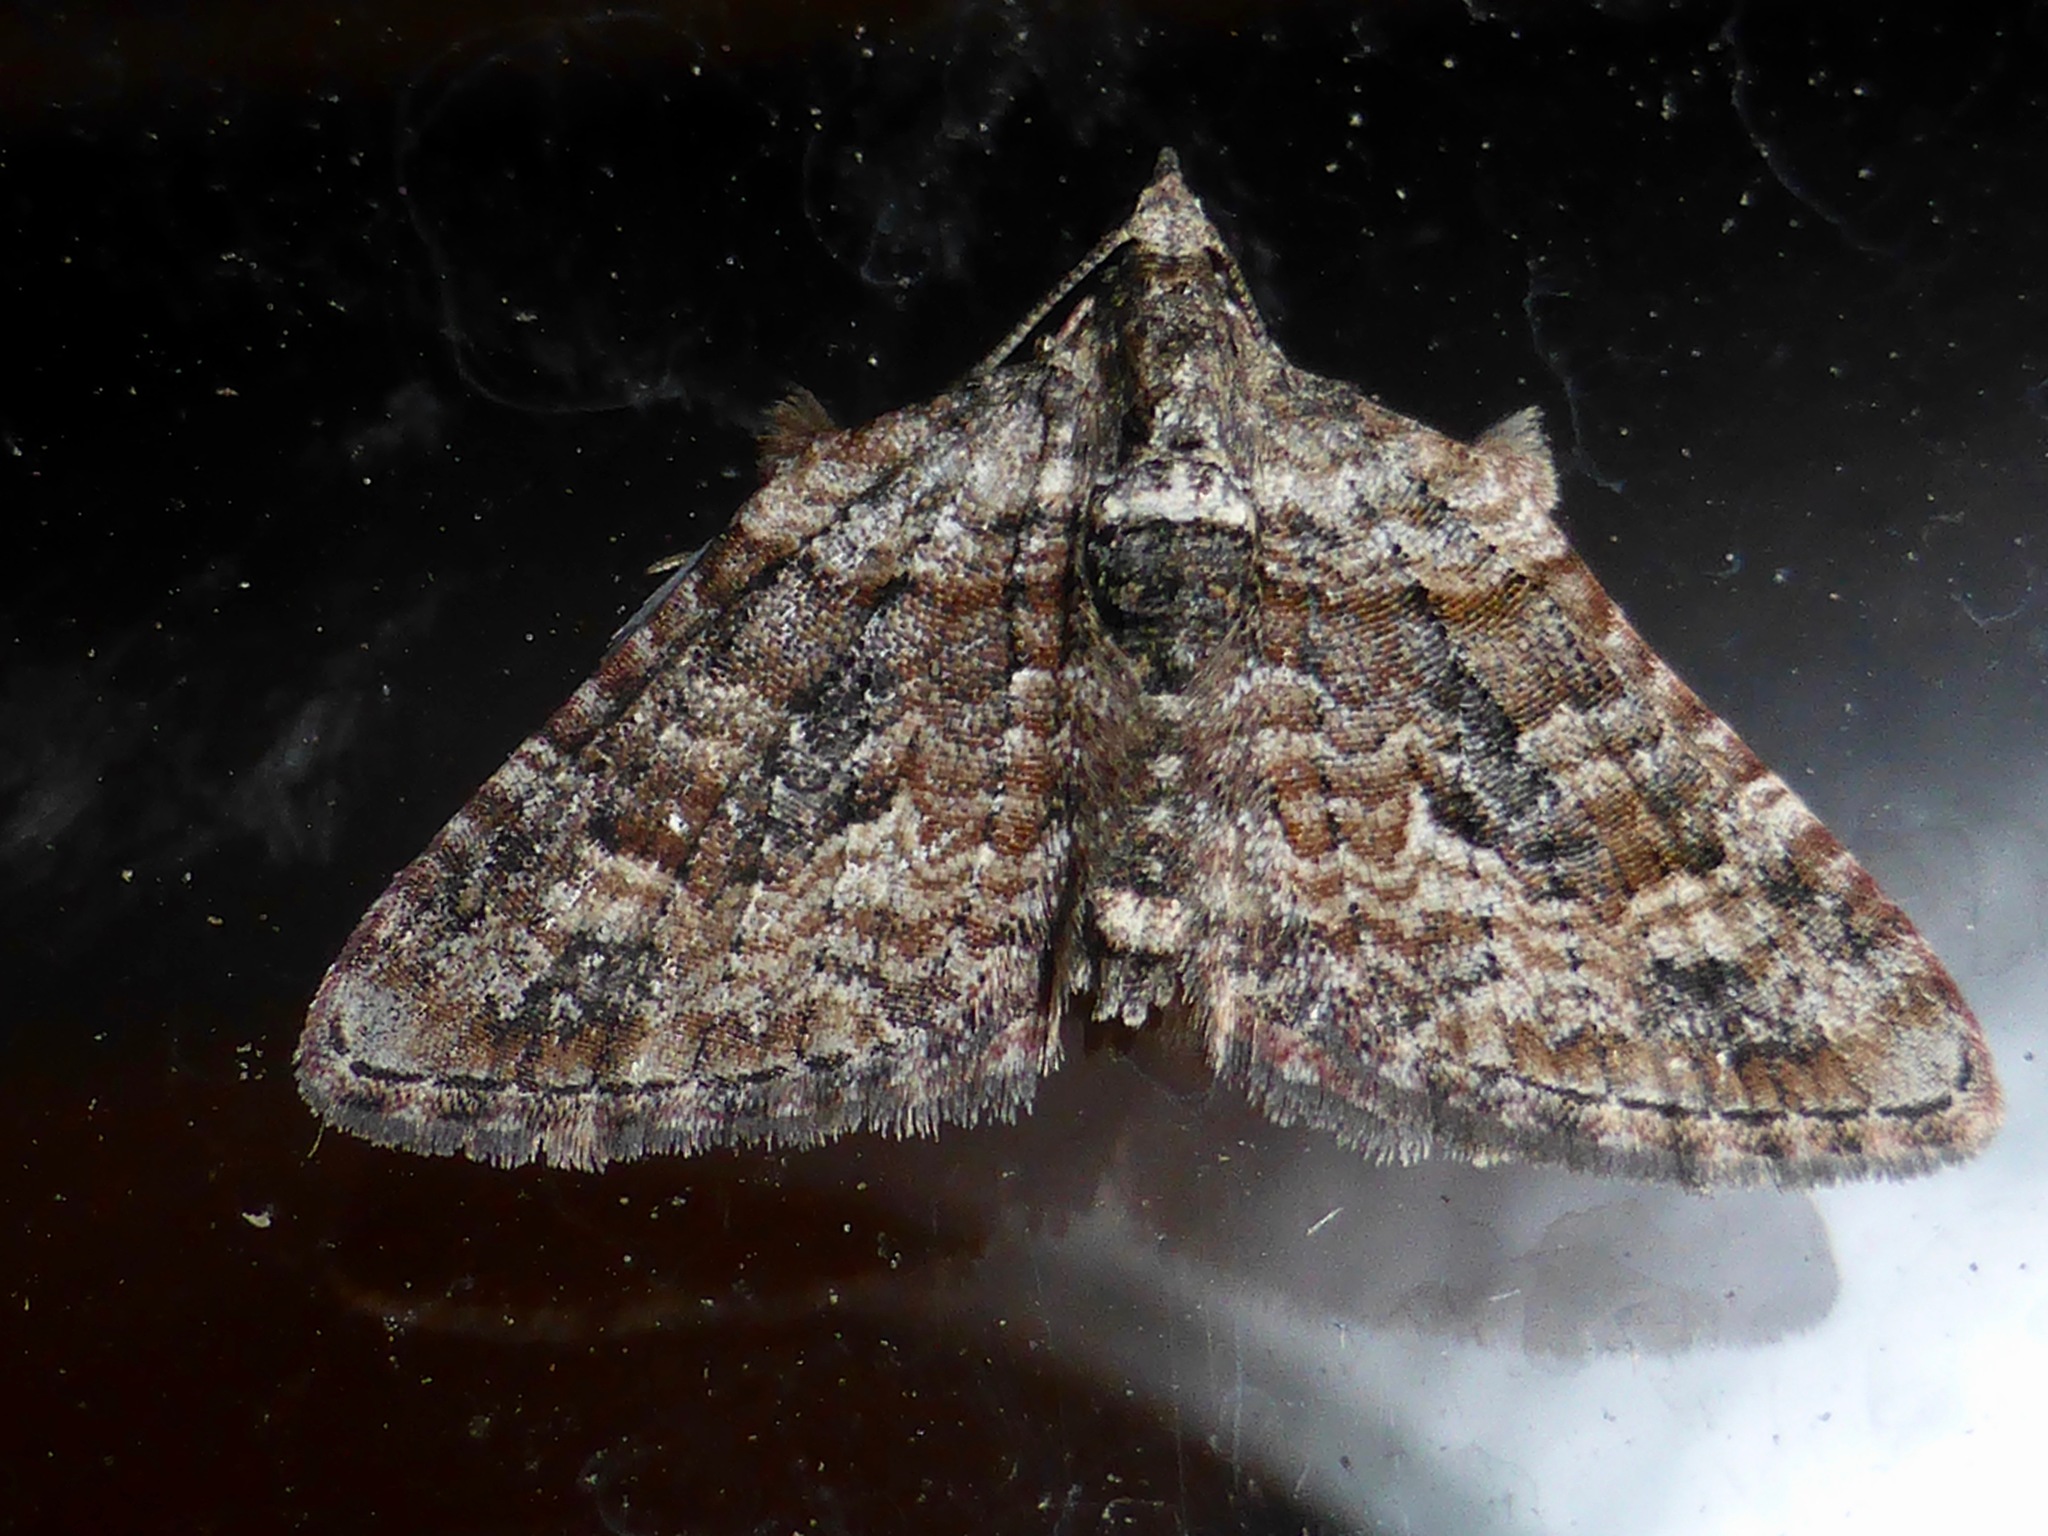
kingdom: Animalia
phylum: Arthropoda
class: Insecta
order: Lepidoptera
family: Geometridae
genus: Phrissogonus
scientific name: Phrissogonus laticostata
